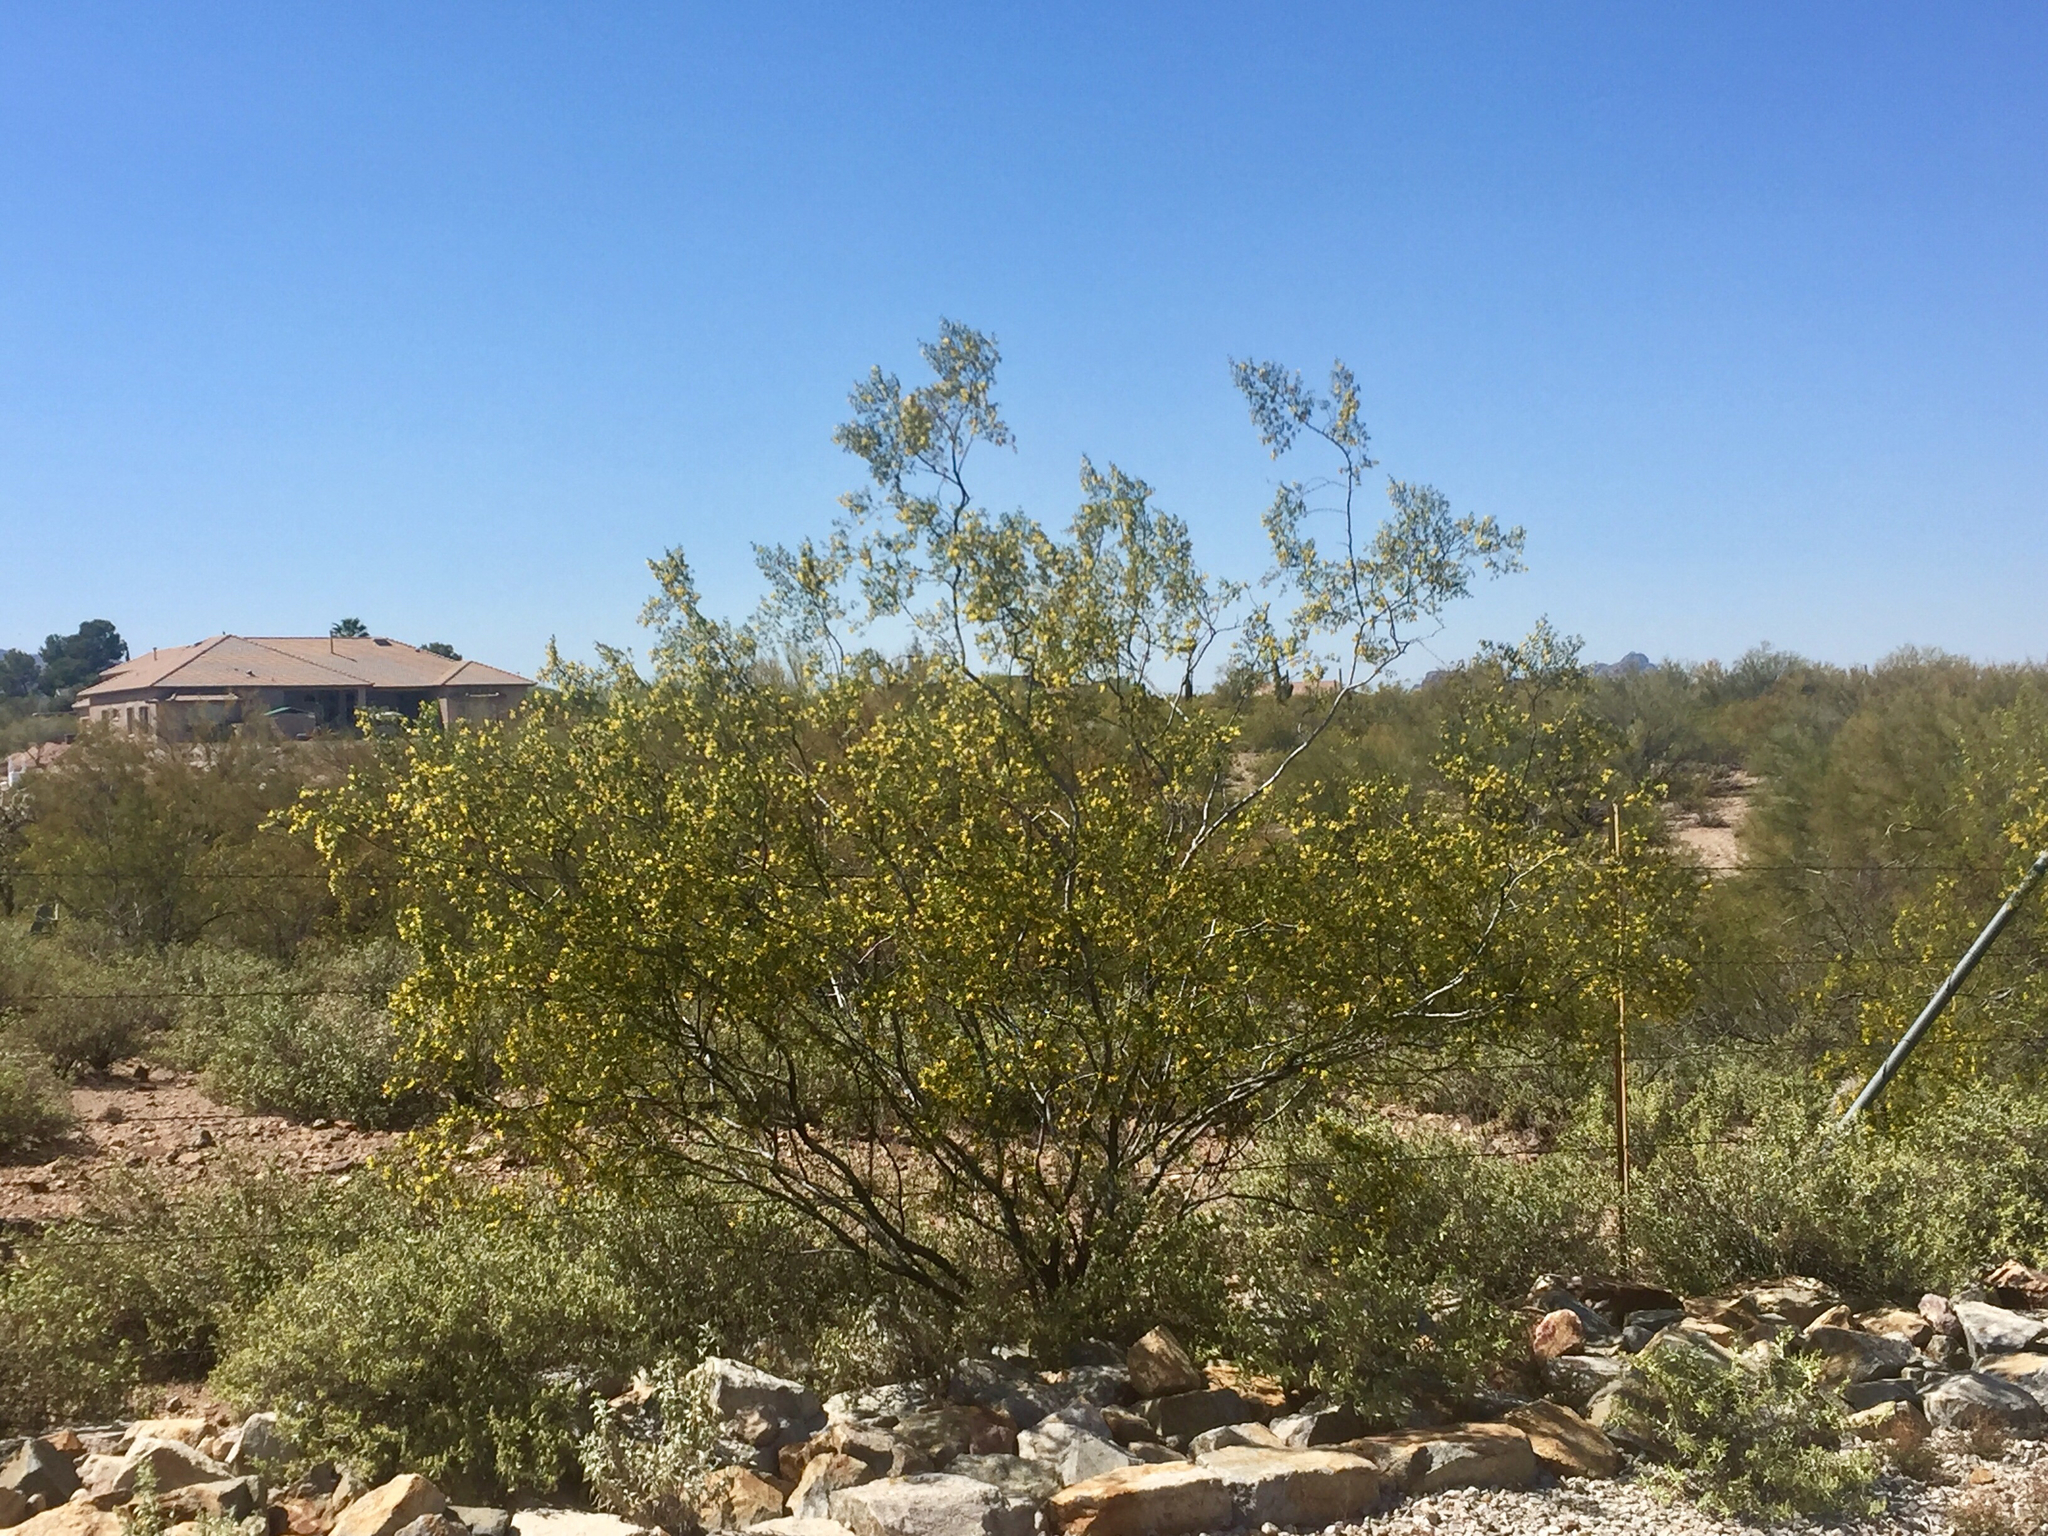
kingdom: Plantae
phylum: Tracheophyta
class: Magnoliopsida
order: Zygophyllales
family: Zygophyllaceae
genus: Larrea
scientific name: Larrea tridentata
